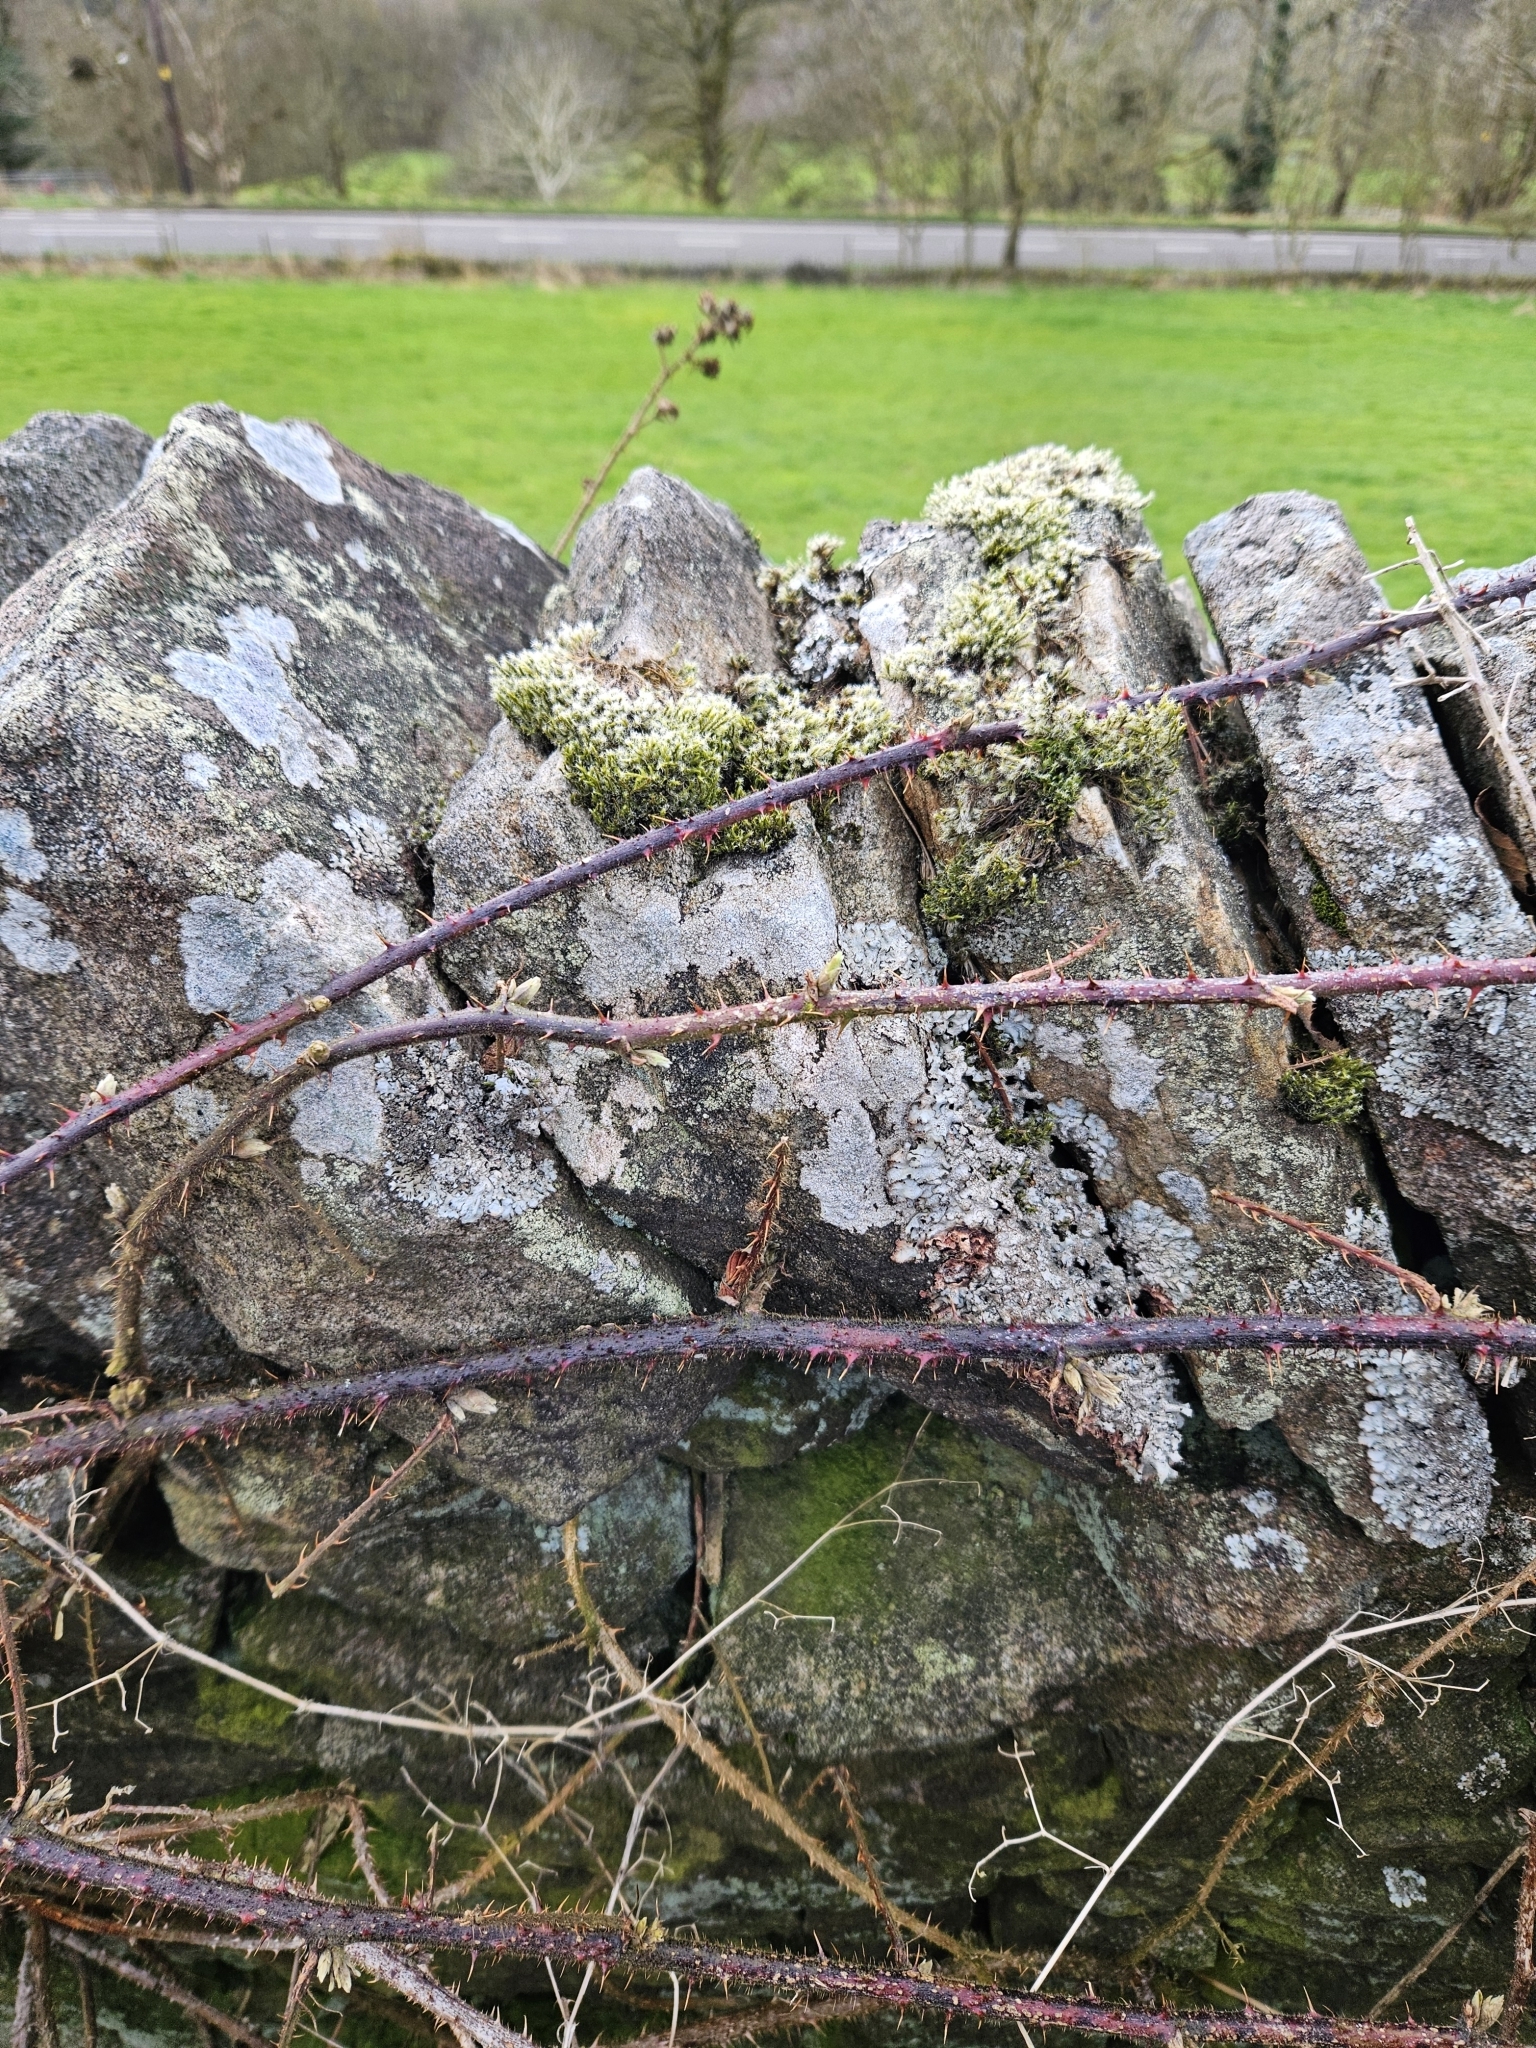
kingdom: Plantae
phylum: Bryophyta
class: Bryopsida
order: Grimmiales
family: Grimmiaceae
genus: Racomitrium
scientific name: Racomitrium lanuginosum
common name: Hoary rock moss
